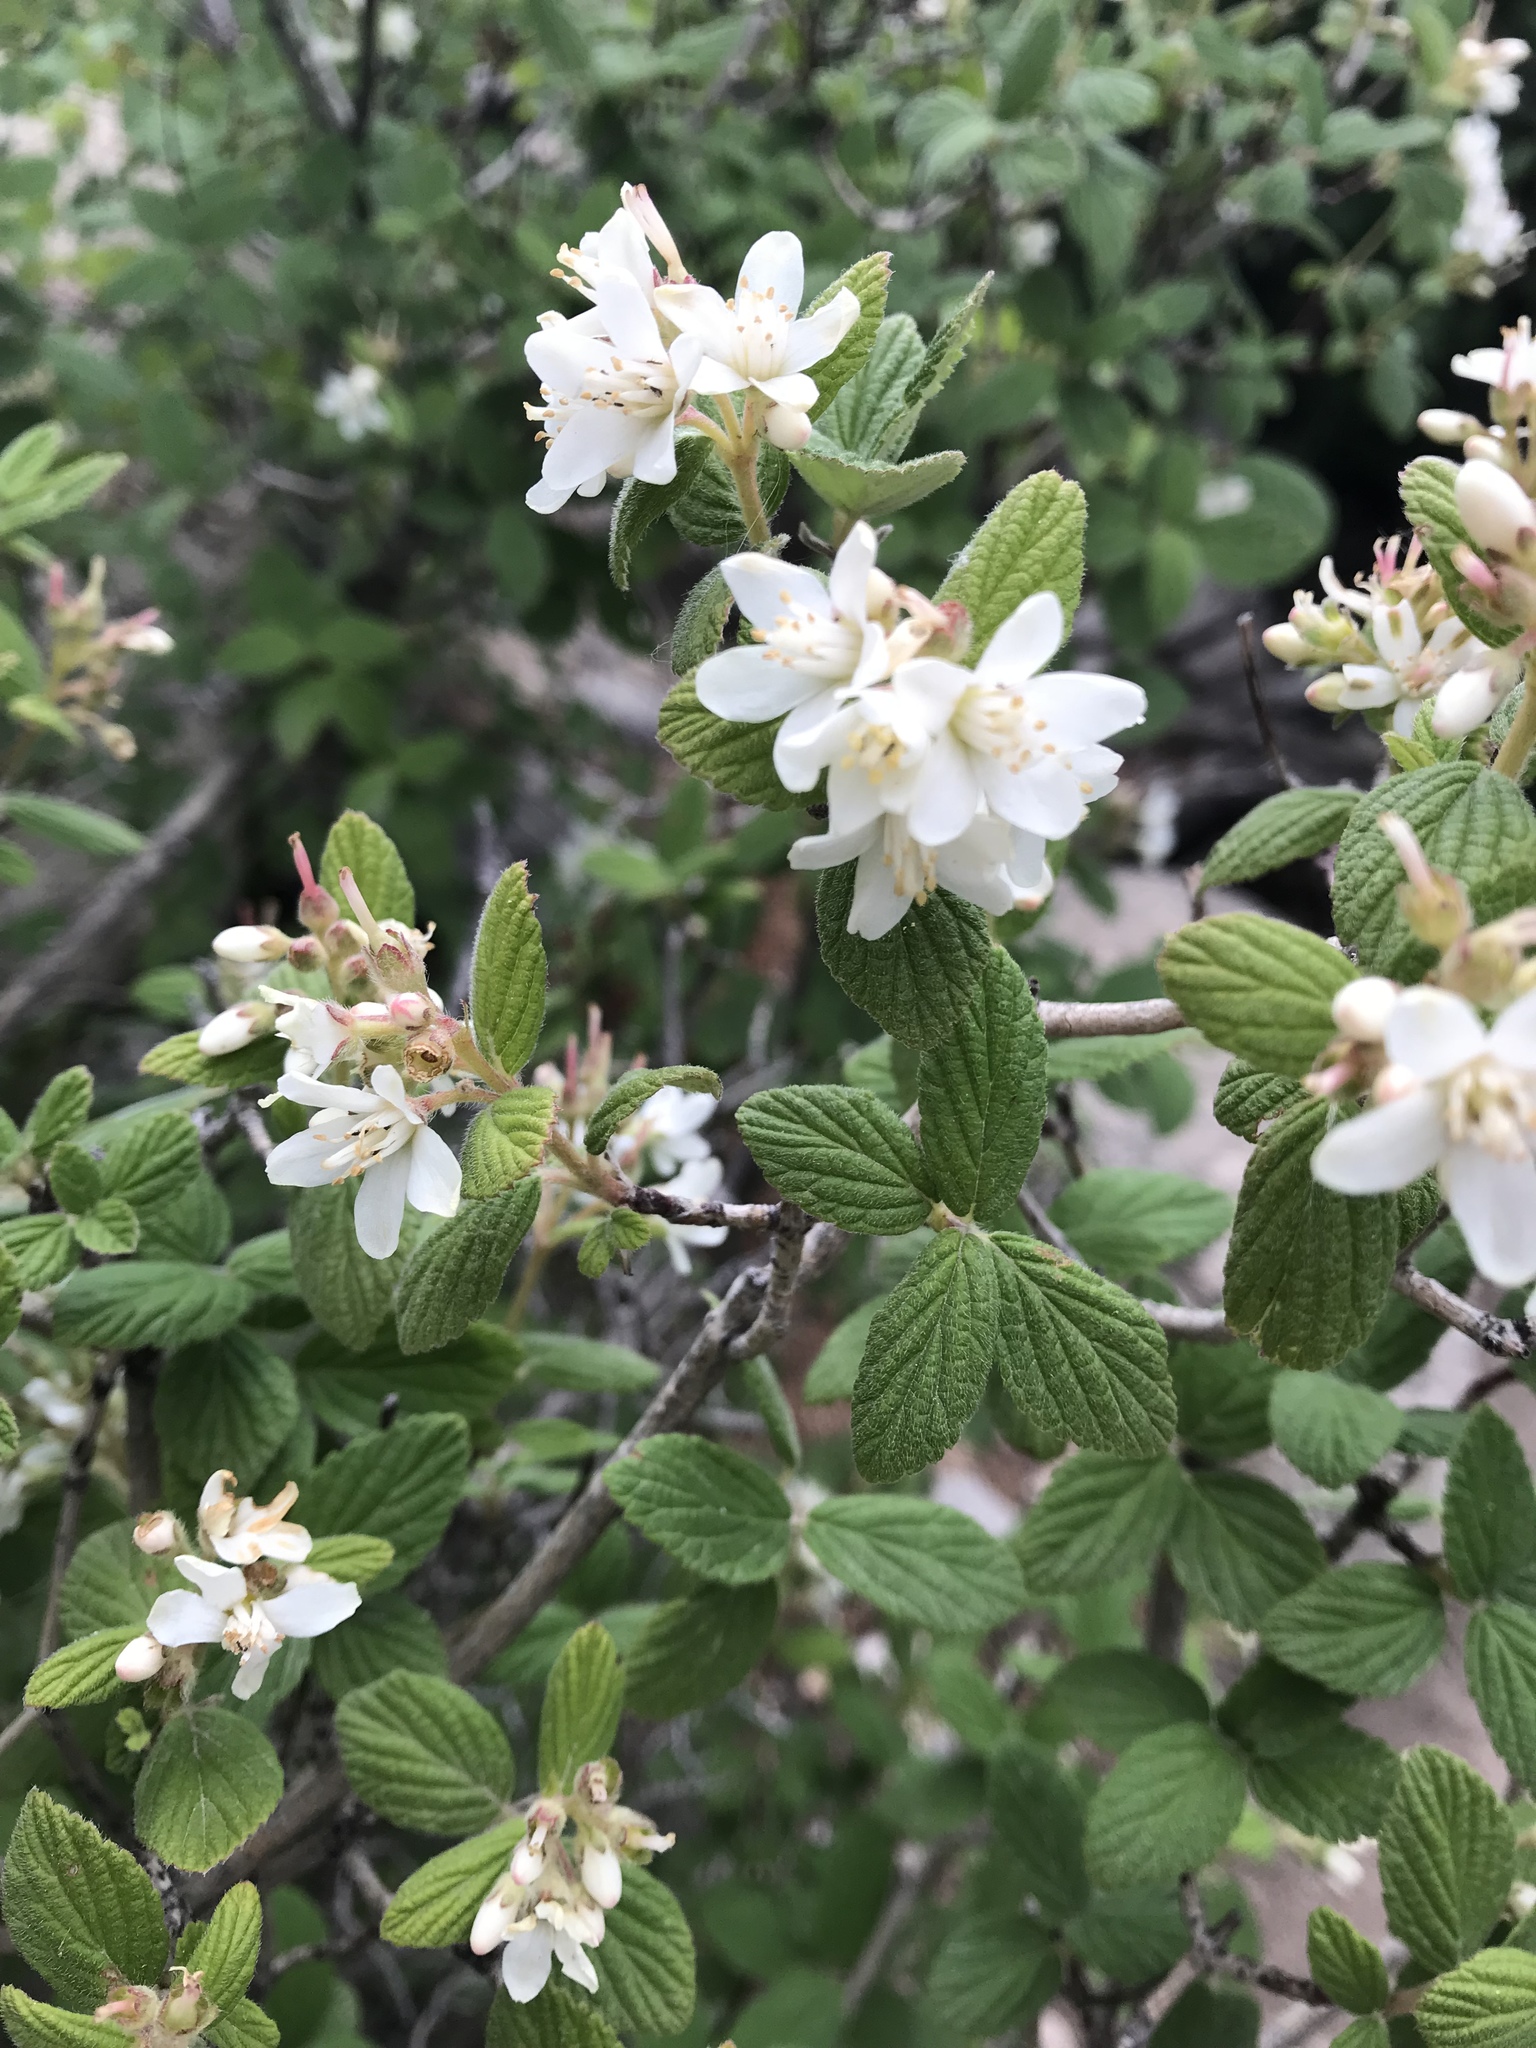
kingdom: Plantae
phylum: Tracheophyta
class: Magnoliopsida
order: Cornales
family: Hydrangeaceae
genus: Jamesia
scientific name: Jamesia americana
